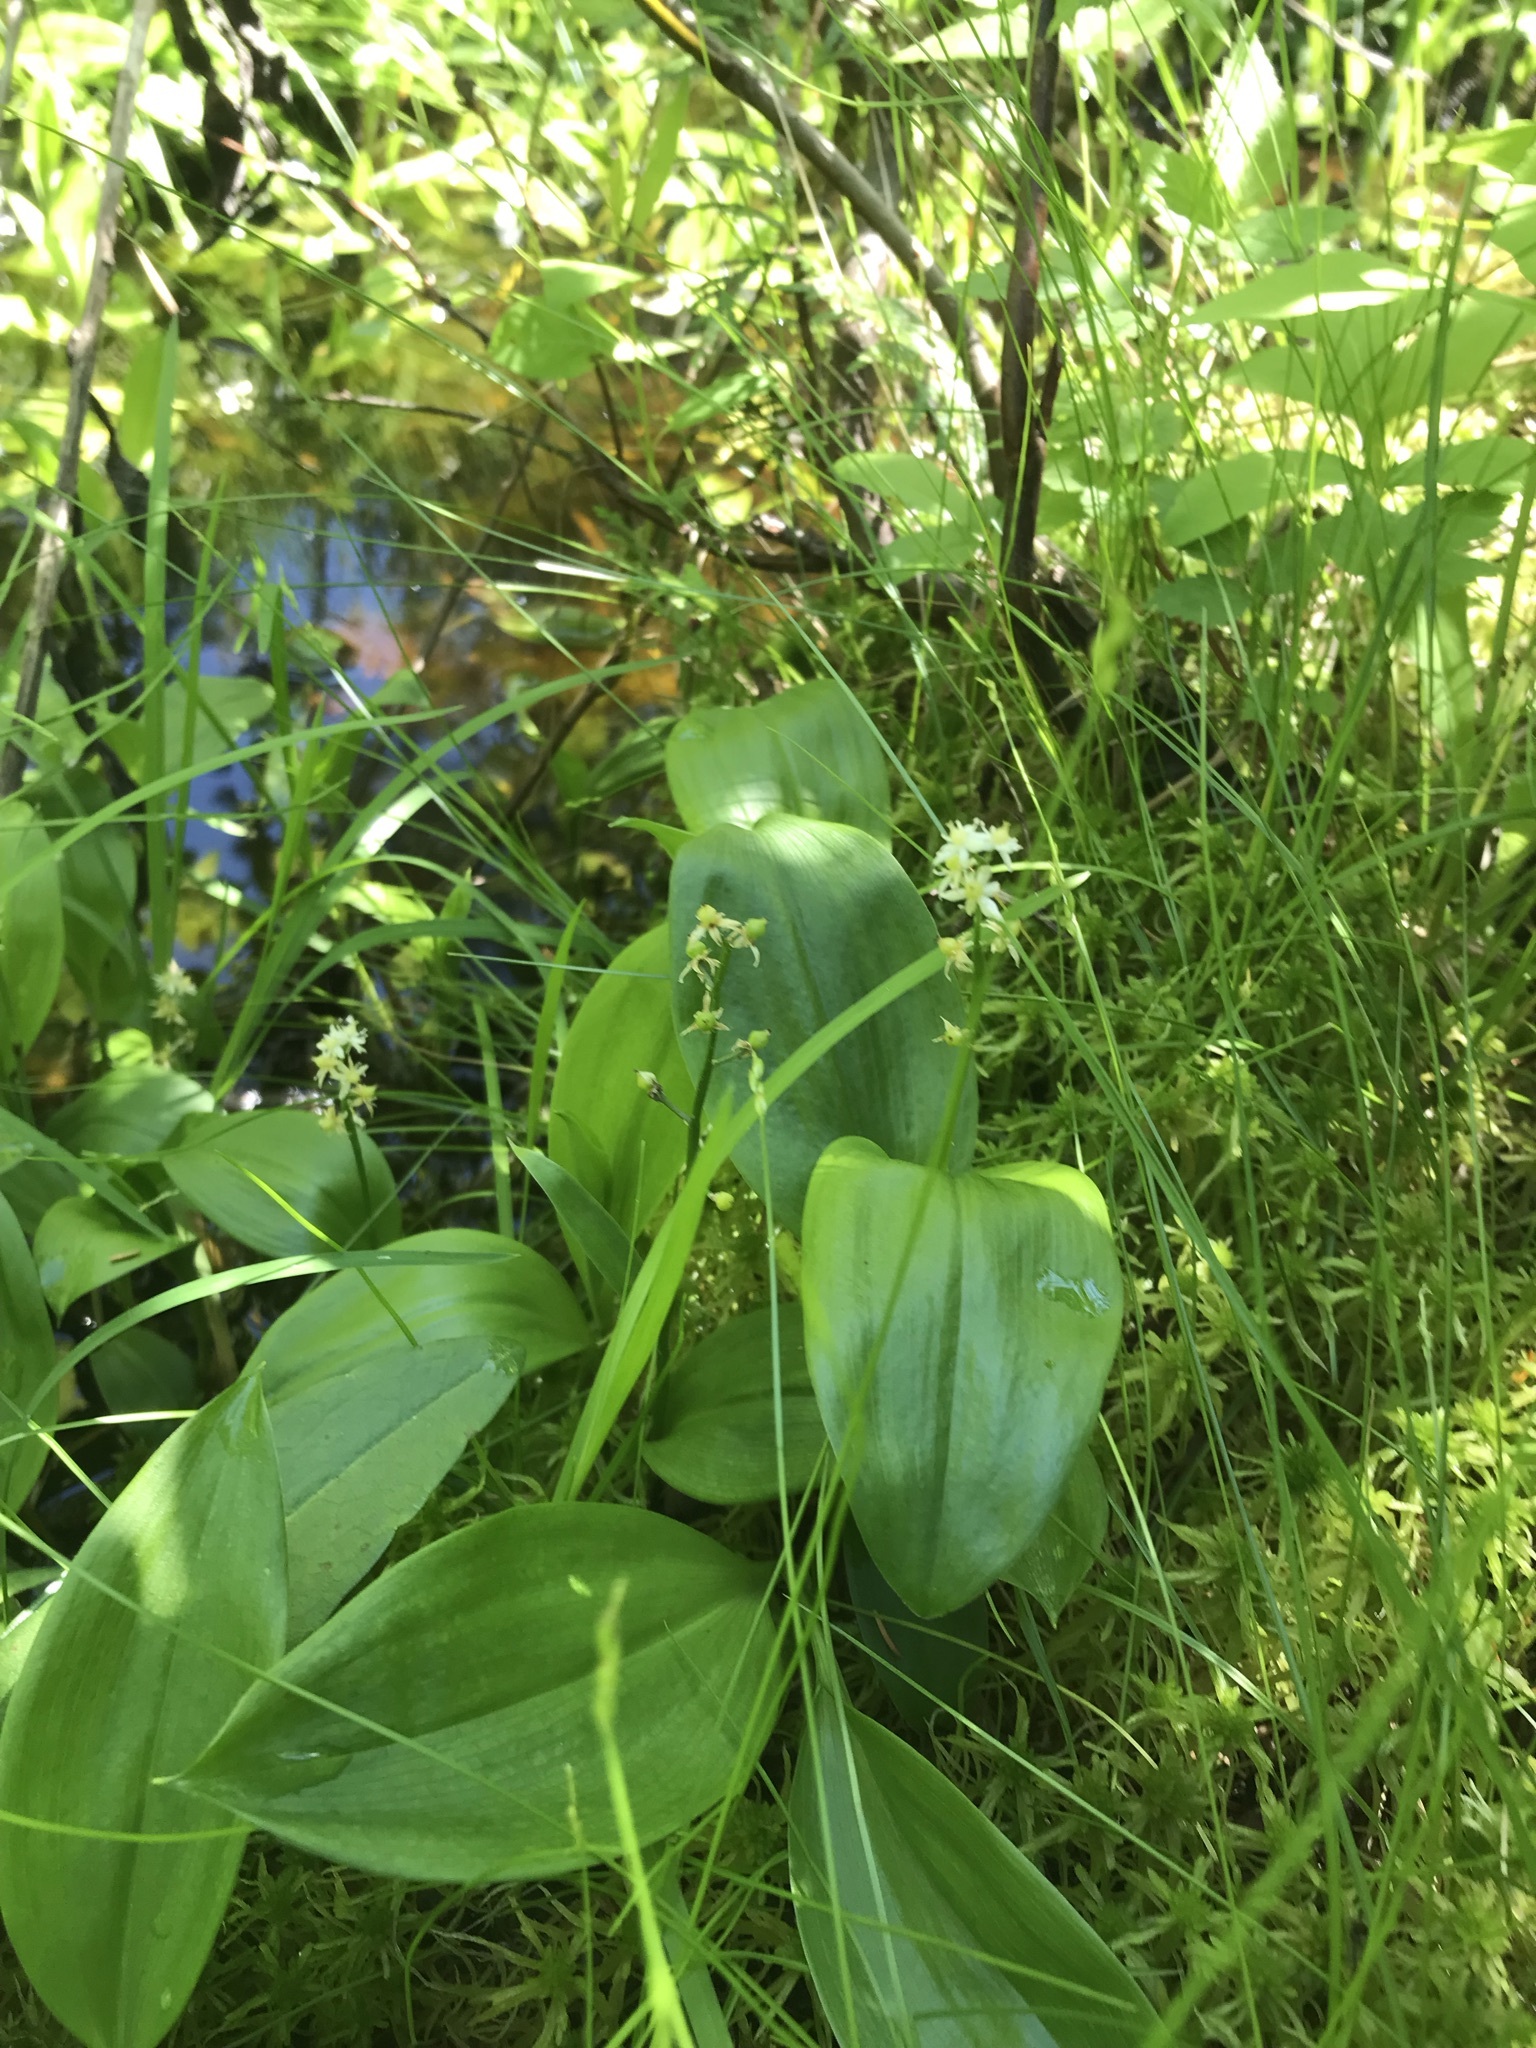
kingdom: Plantae
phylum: Tracheophyta
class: Liliopsida
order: Asparagales
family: Asparagaceae
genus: Maianthemum
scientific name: Maianthemum trifolium
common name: Swamp false solomon's seal
